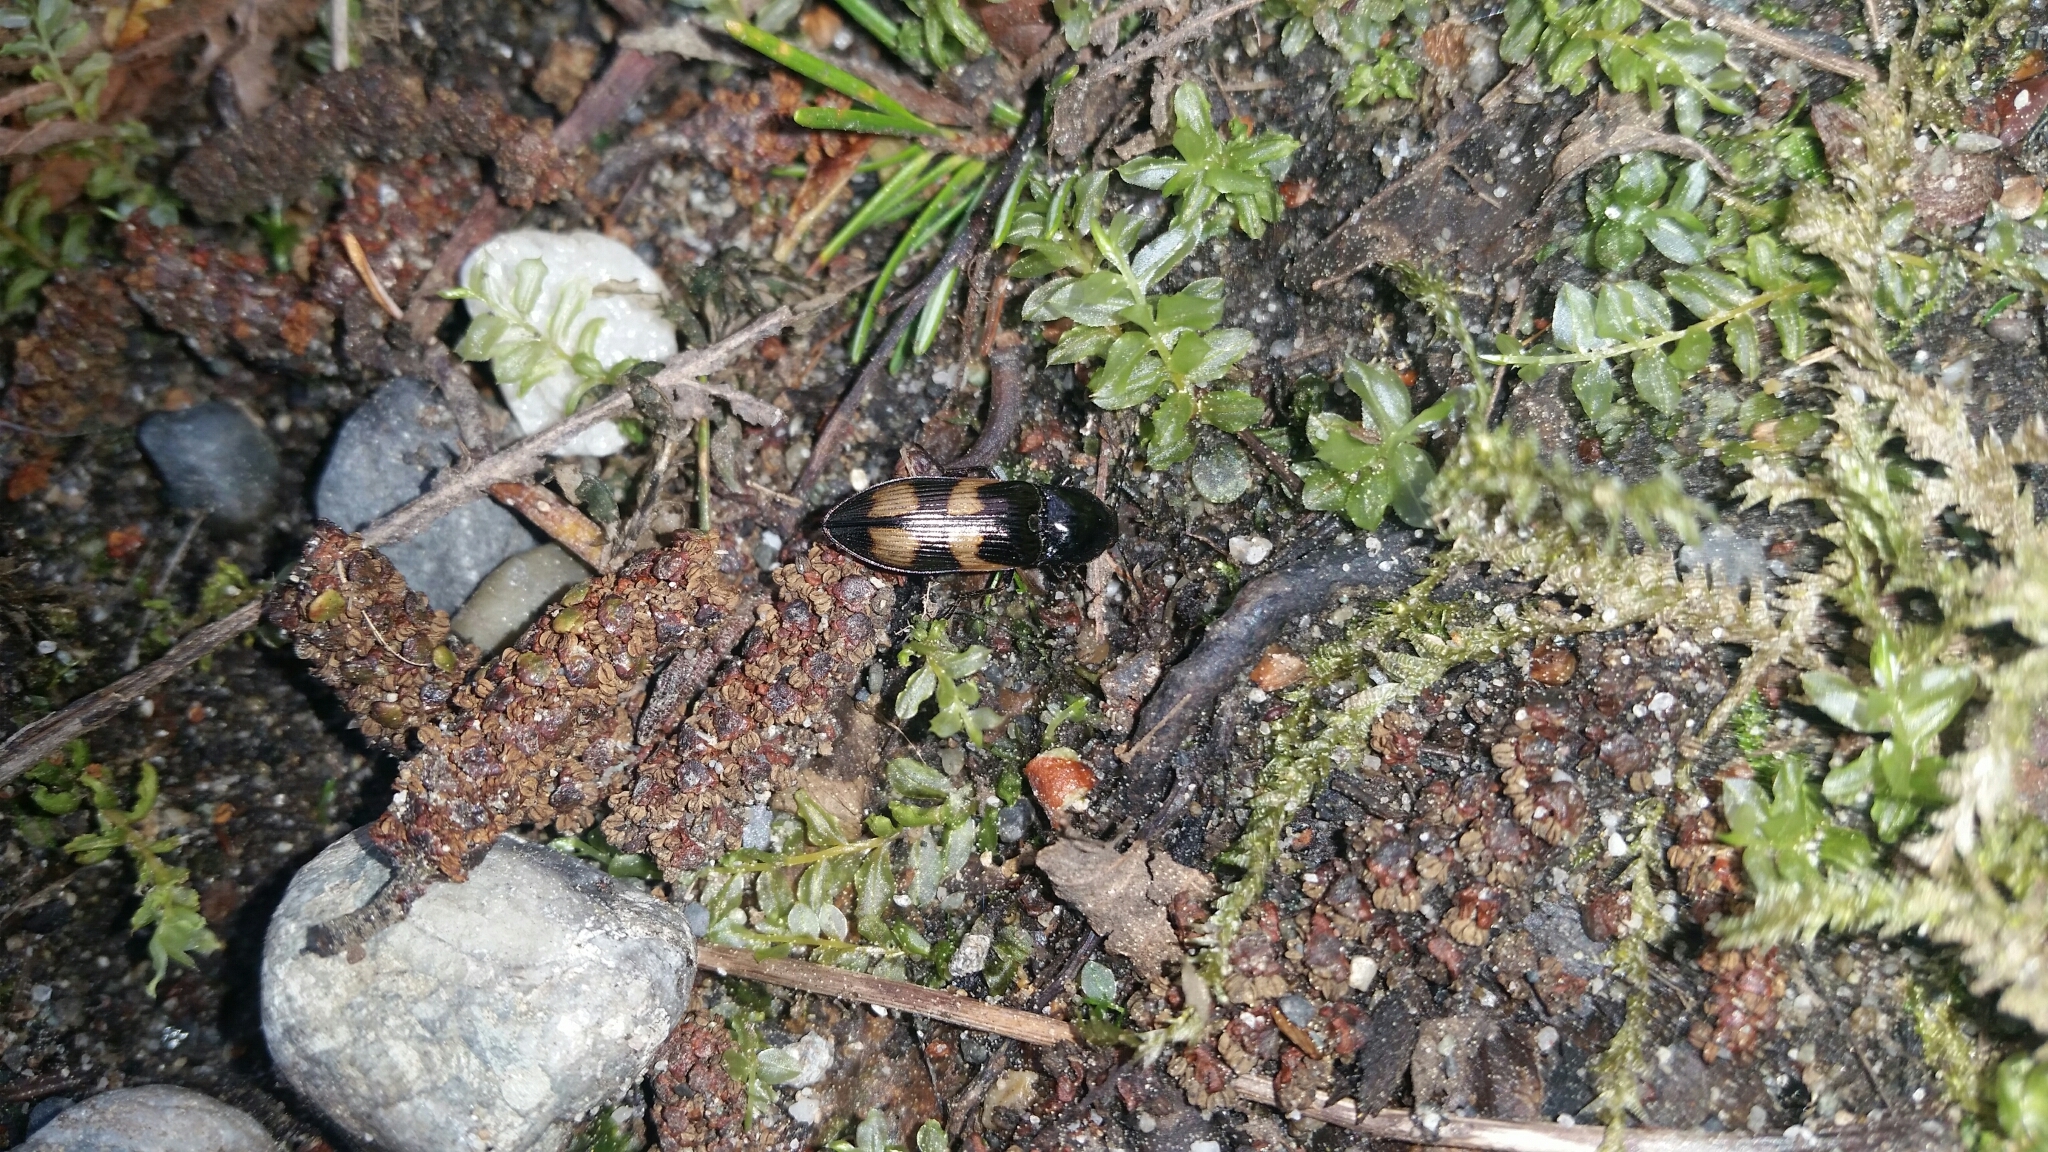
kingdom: Animalia
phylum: Arthropoda
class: Insecta
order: Coleoptera
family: Elateridae
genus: Selatosomus
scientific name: Selatosomus suckleyi
